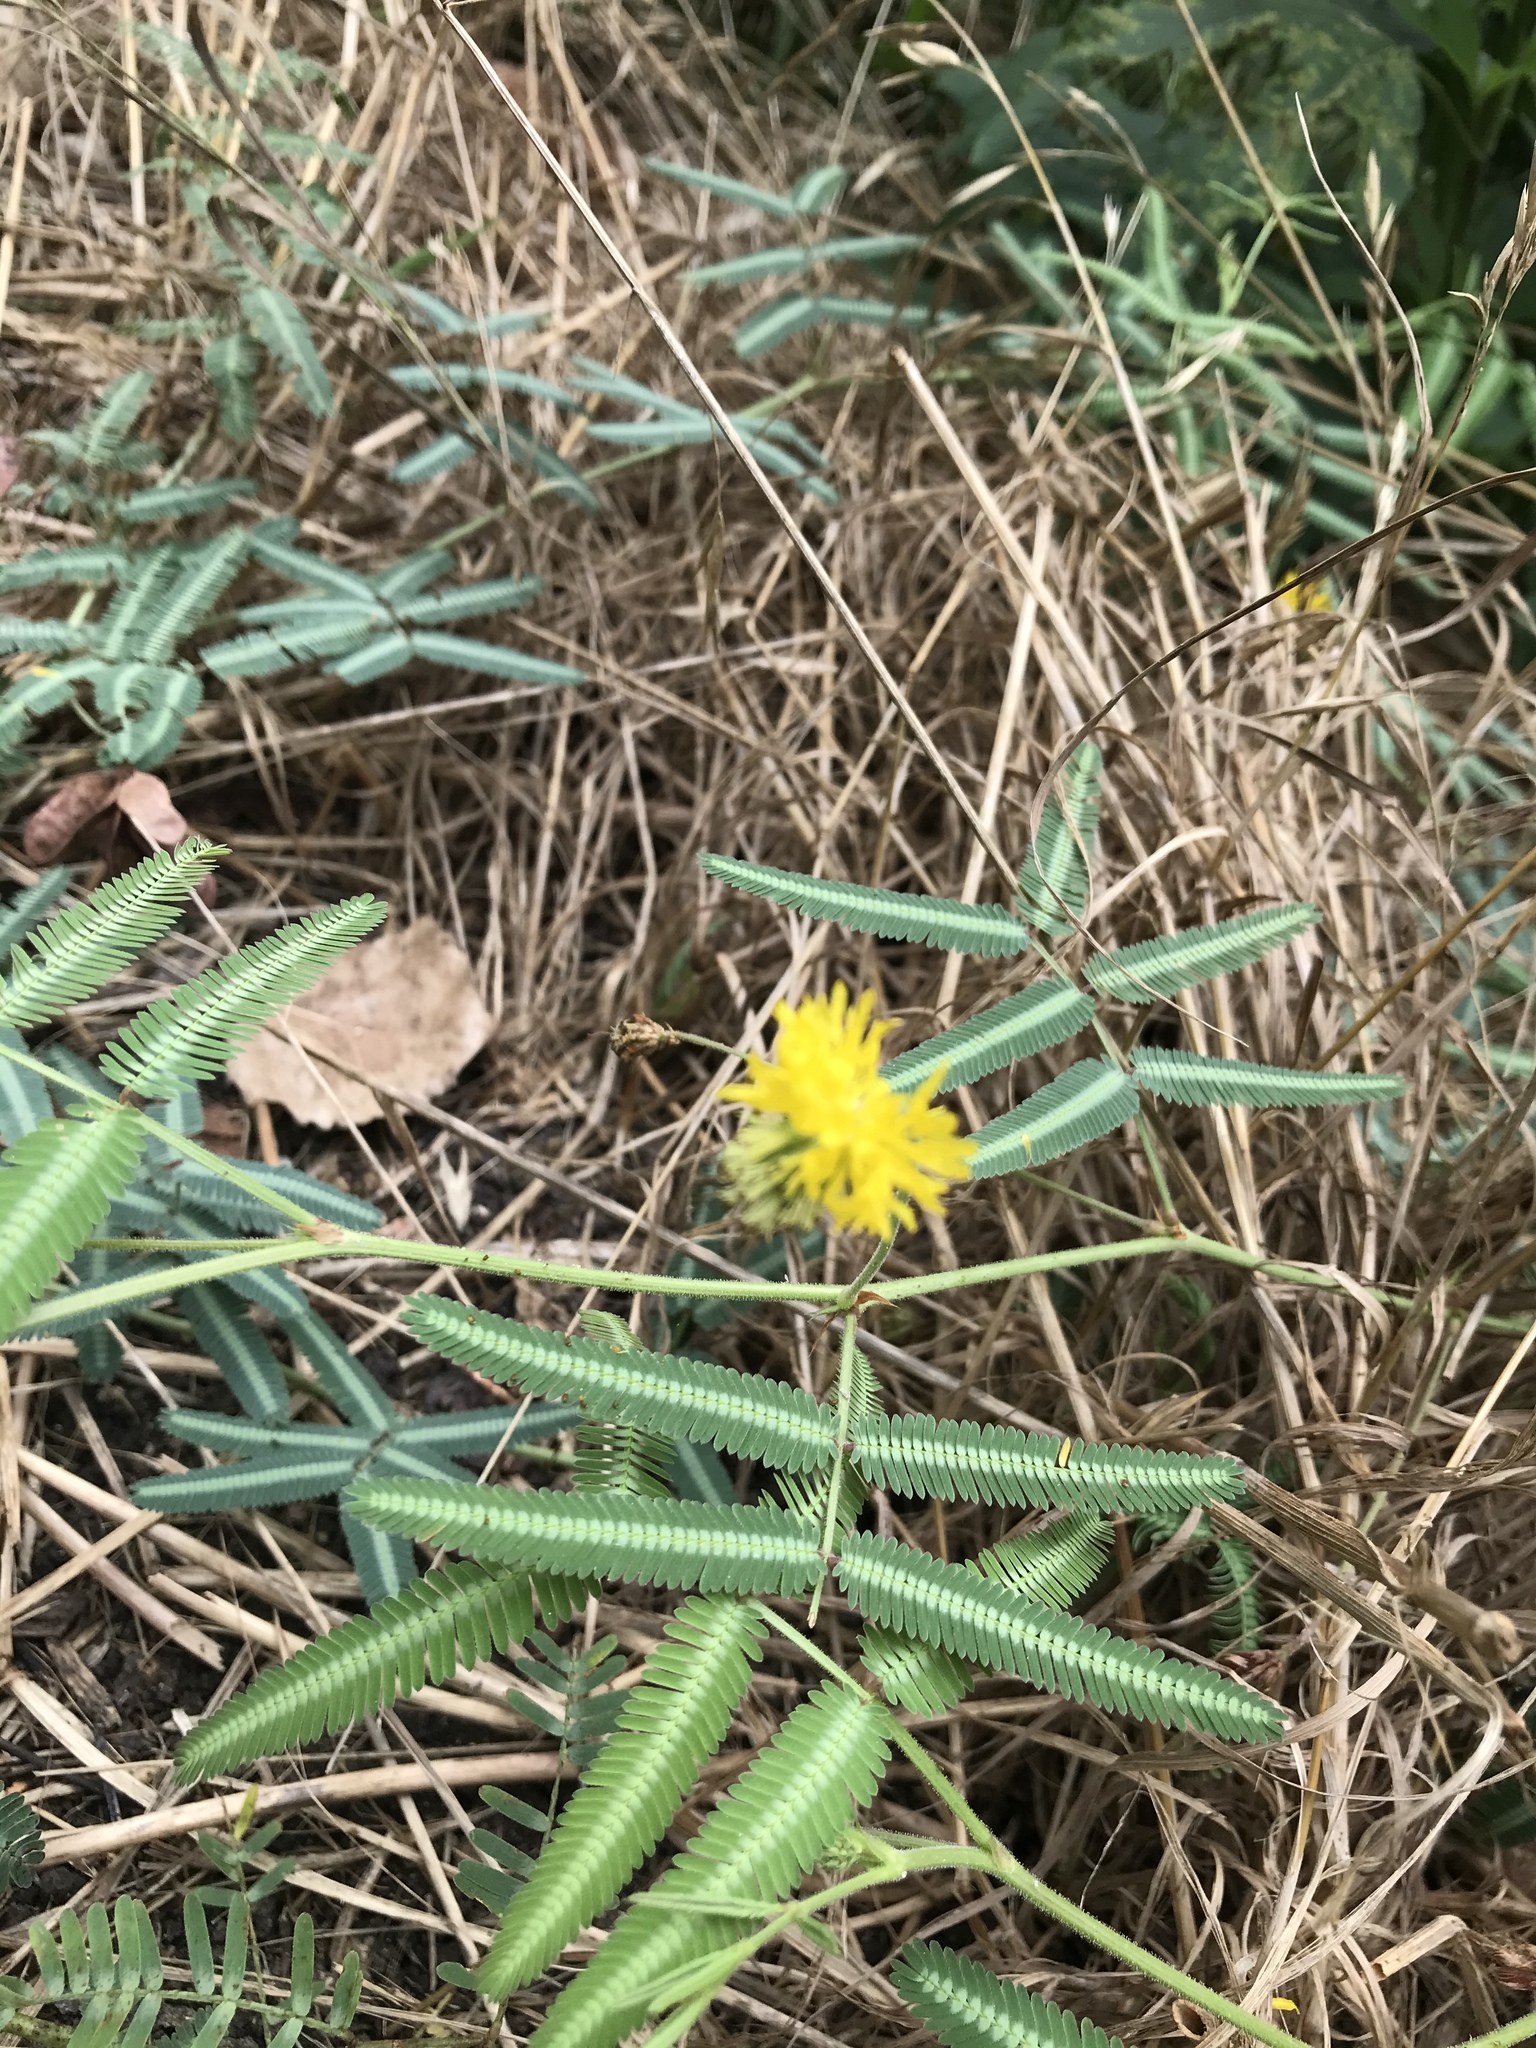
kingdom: Plantae
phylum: Tracheophyta
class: Magnoliopsida
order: Fabales
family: Fabaceae
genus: Neptunia
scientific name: Neptunia pubescens
